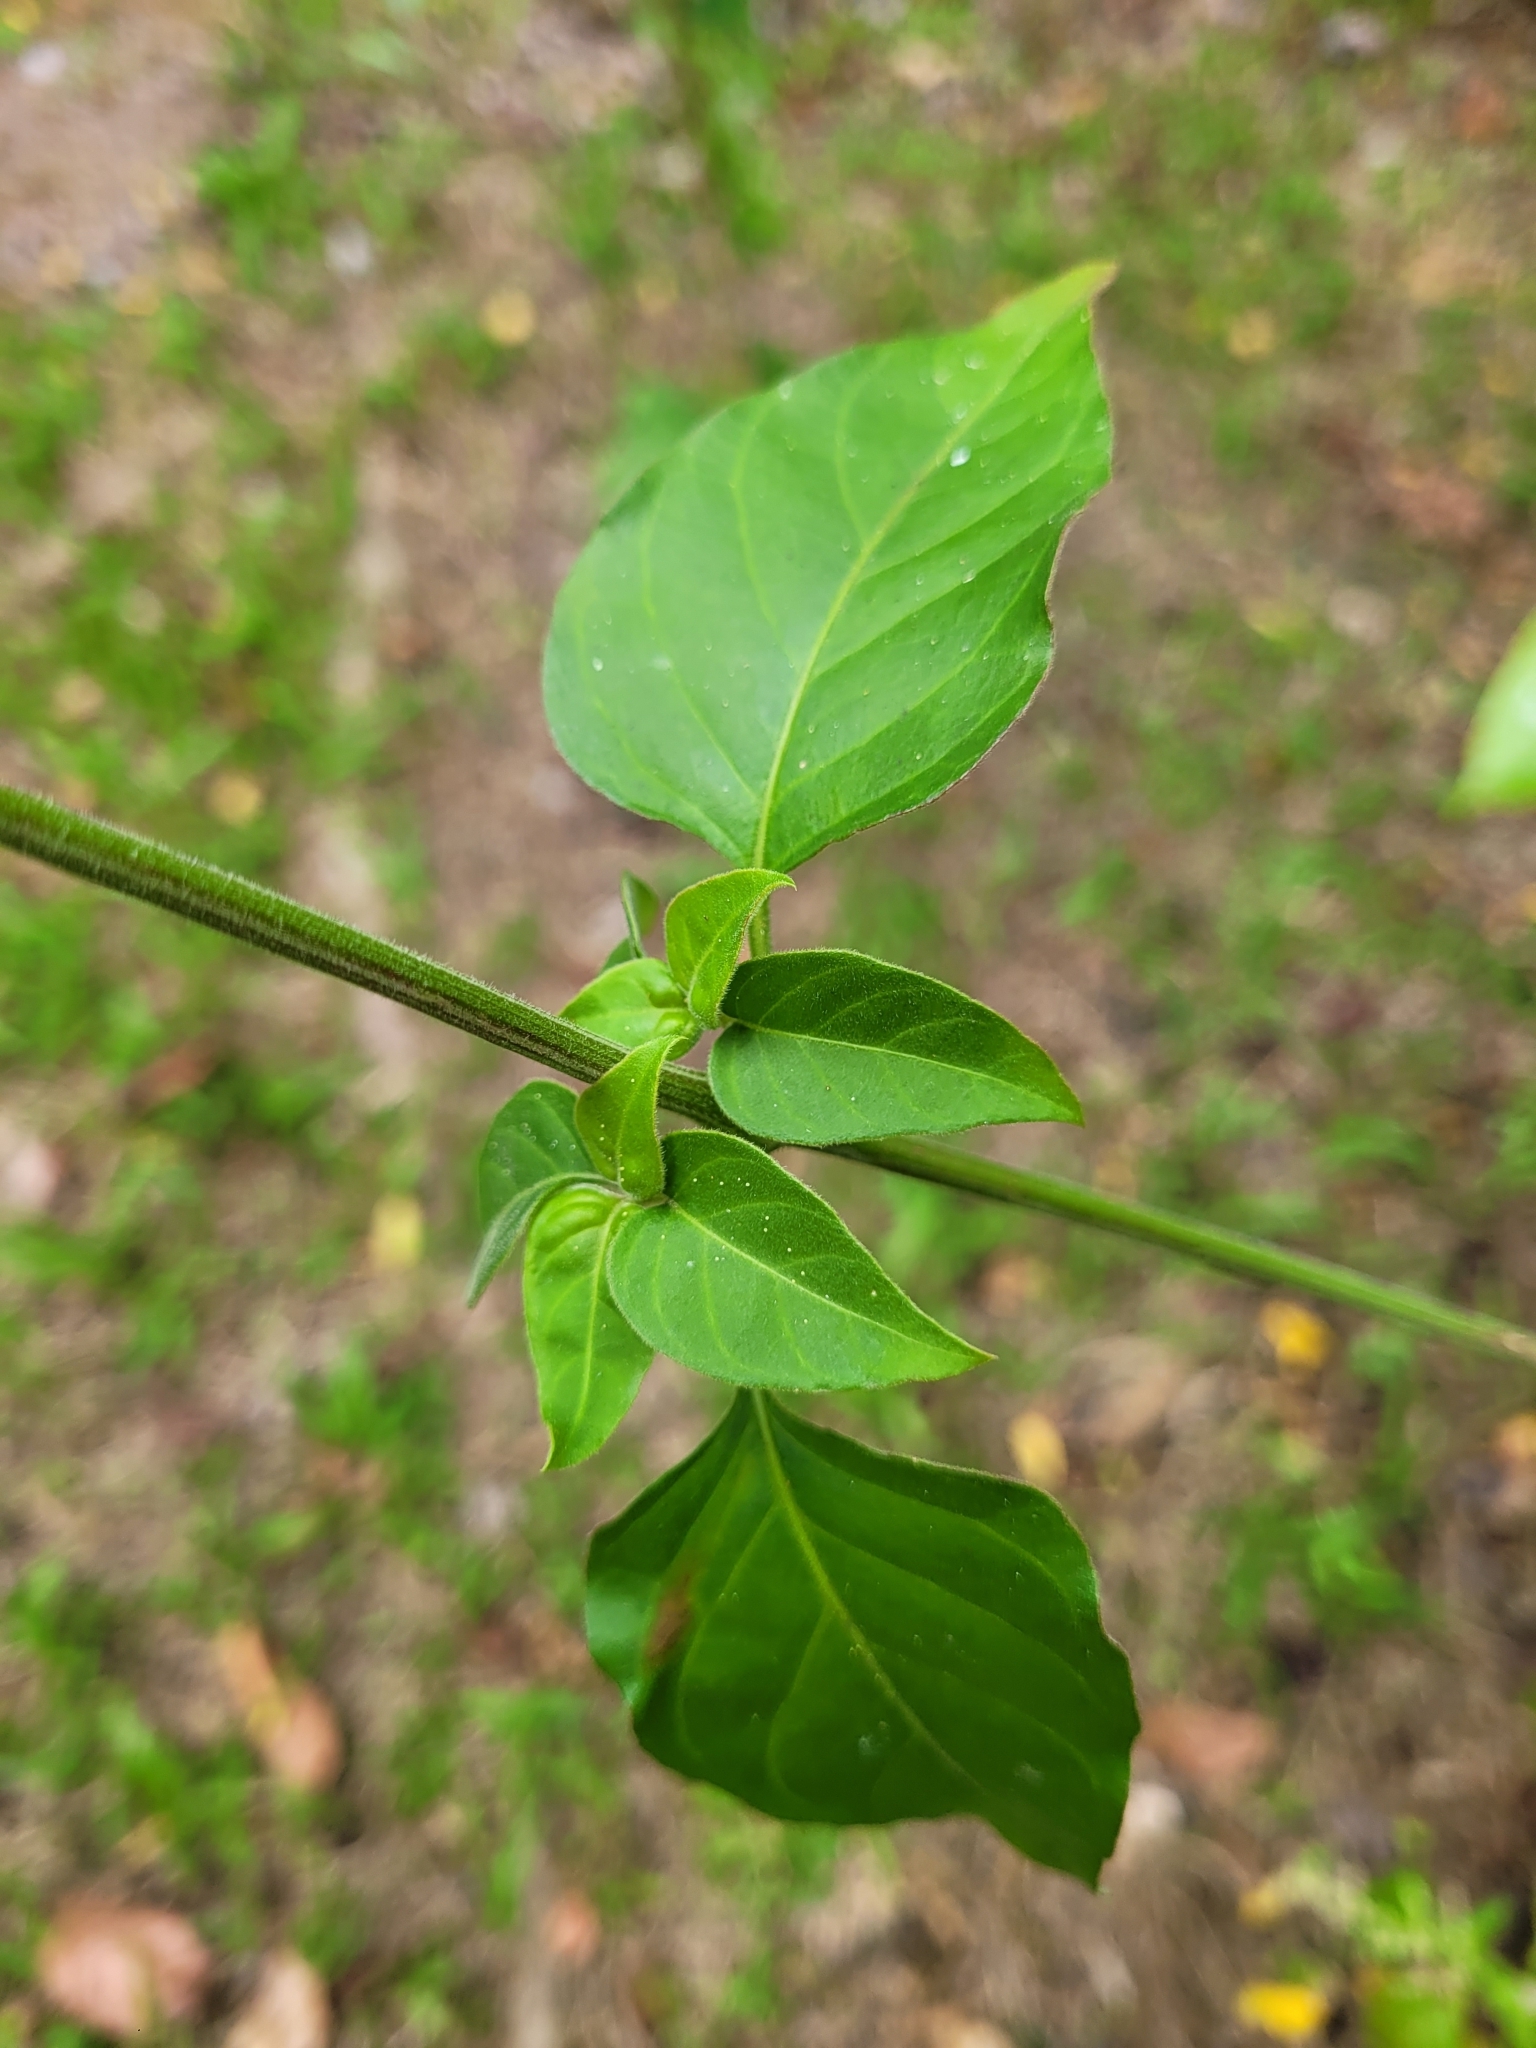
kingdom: Plantae
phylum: Tracheophyta
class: Magnoliopsida
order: Caryophyllales
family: Amaranthaceae
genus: Iresine
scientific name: Iresine diffusa
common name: Juba's-bush
